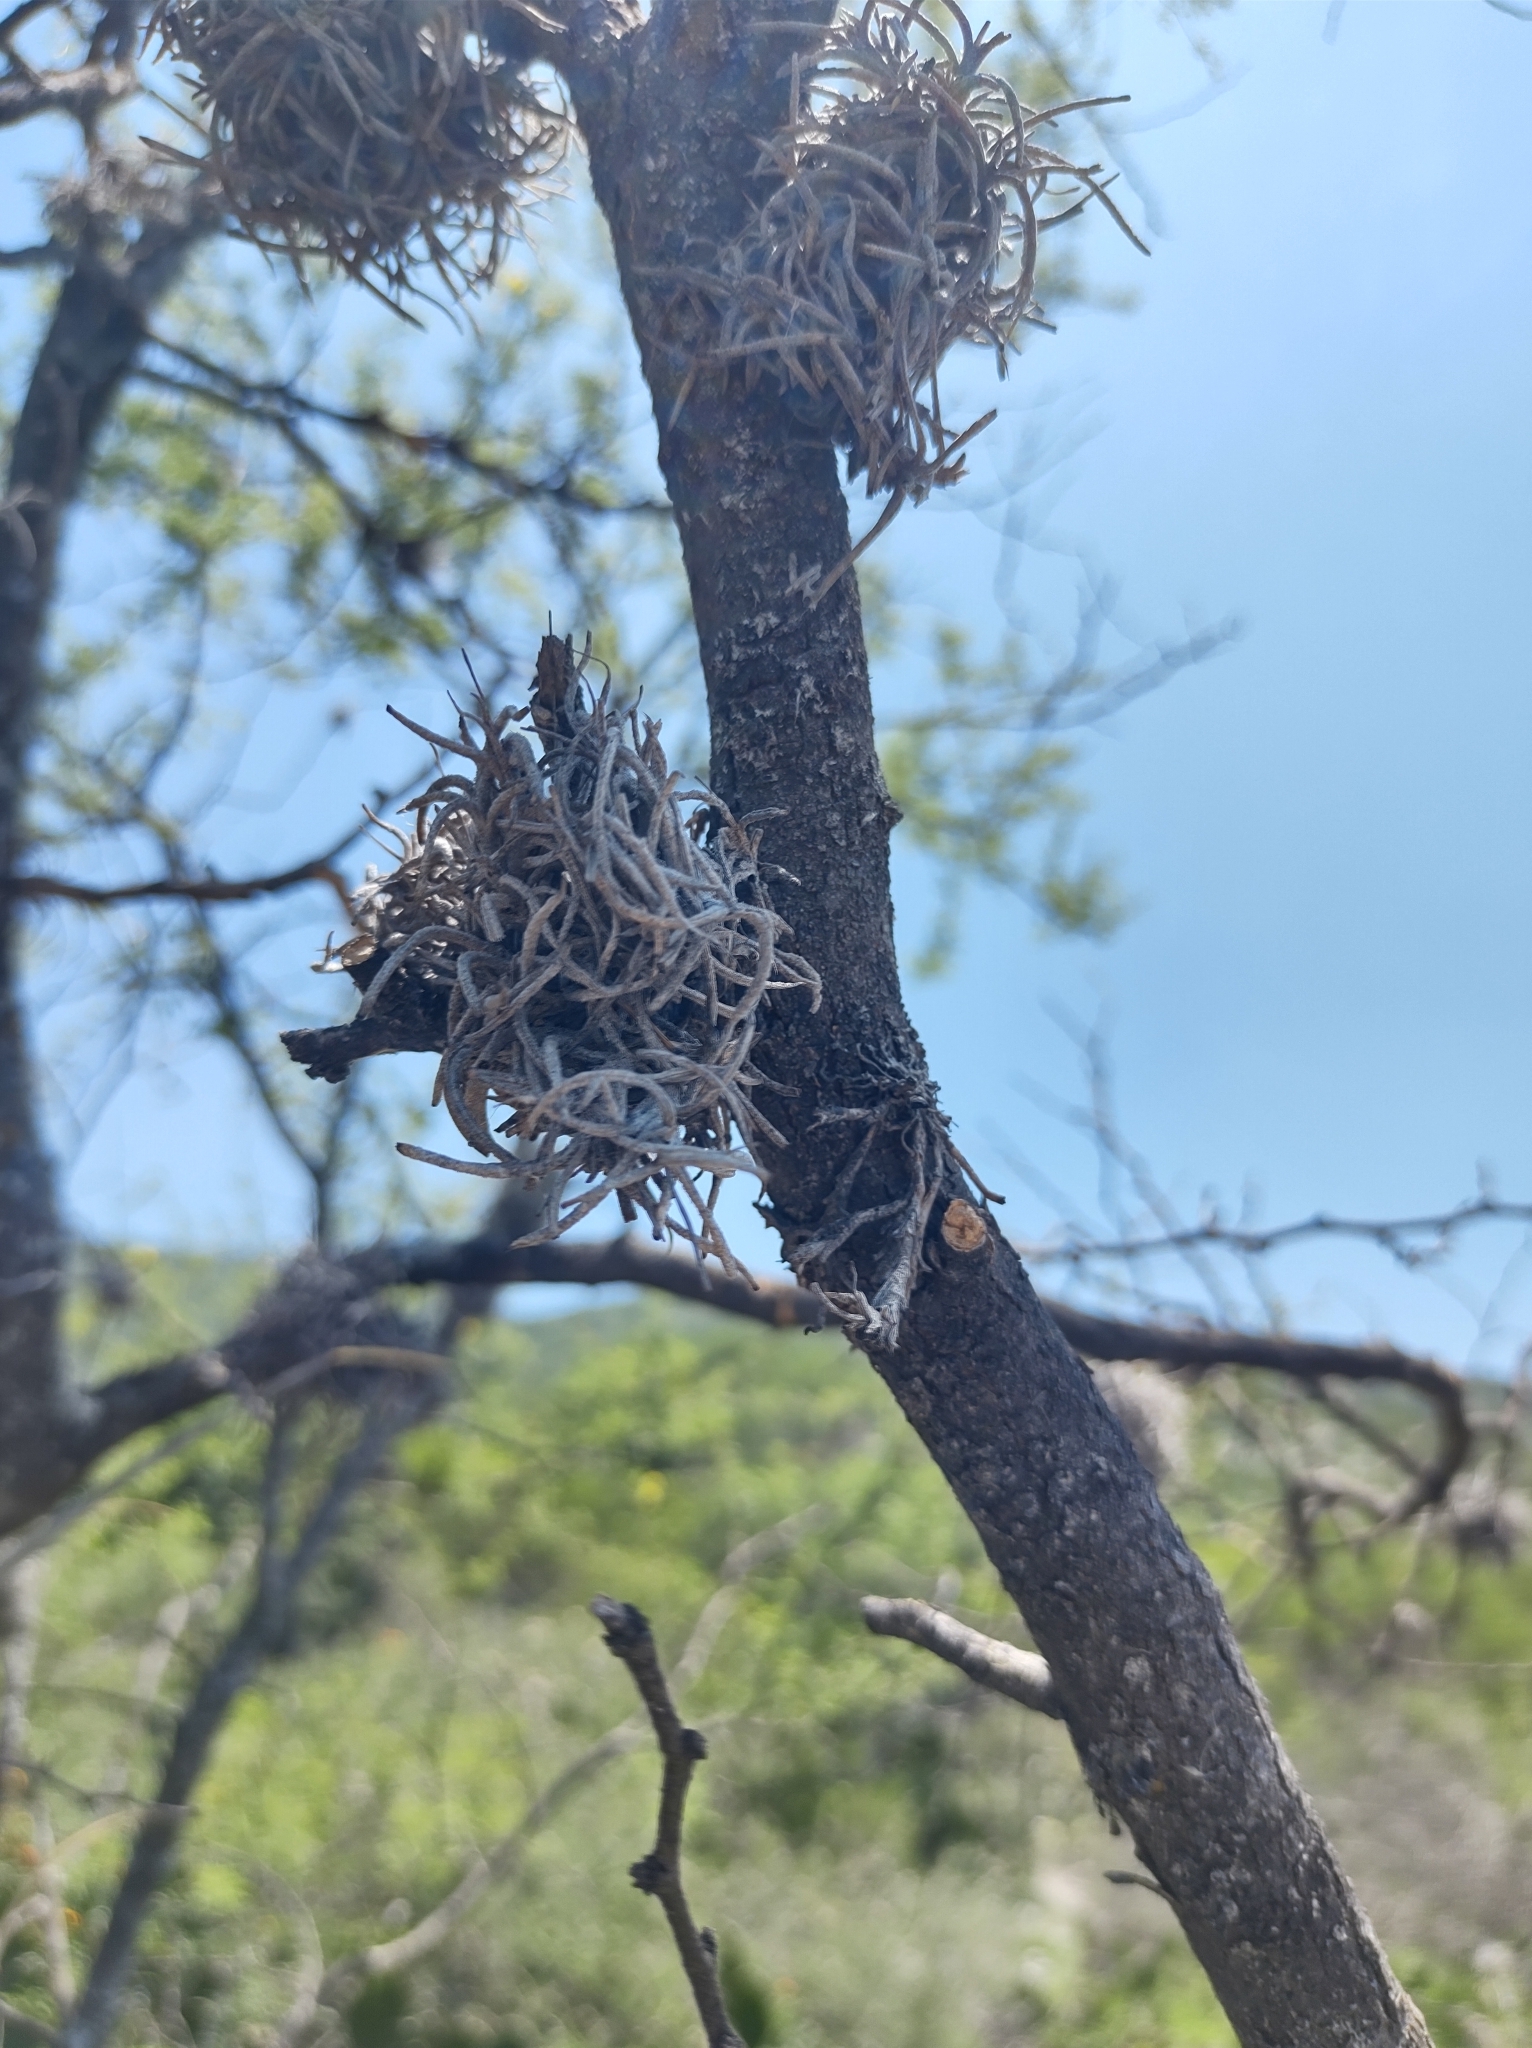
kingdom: Plantae
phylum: Tracheophyta
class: Liliopsida
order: Poales
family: Bromeliaceae
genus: Tillandsia
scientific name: Tillandsia recurvata
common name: Small ballmoss
